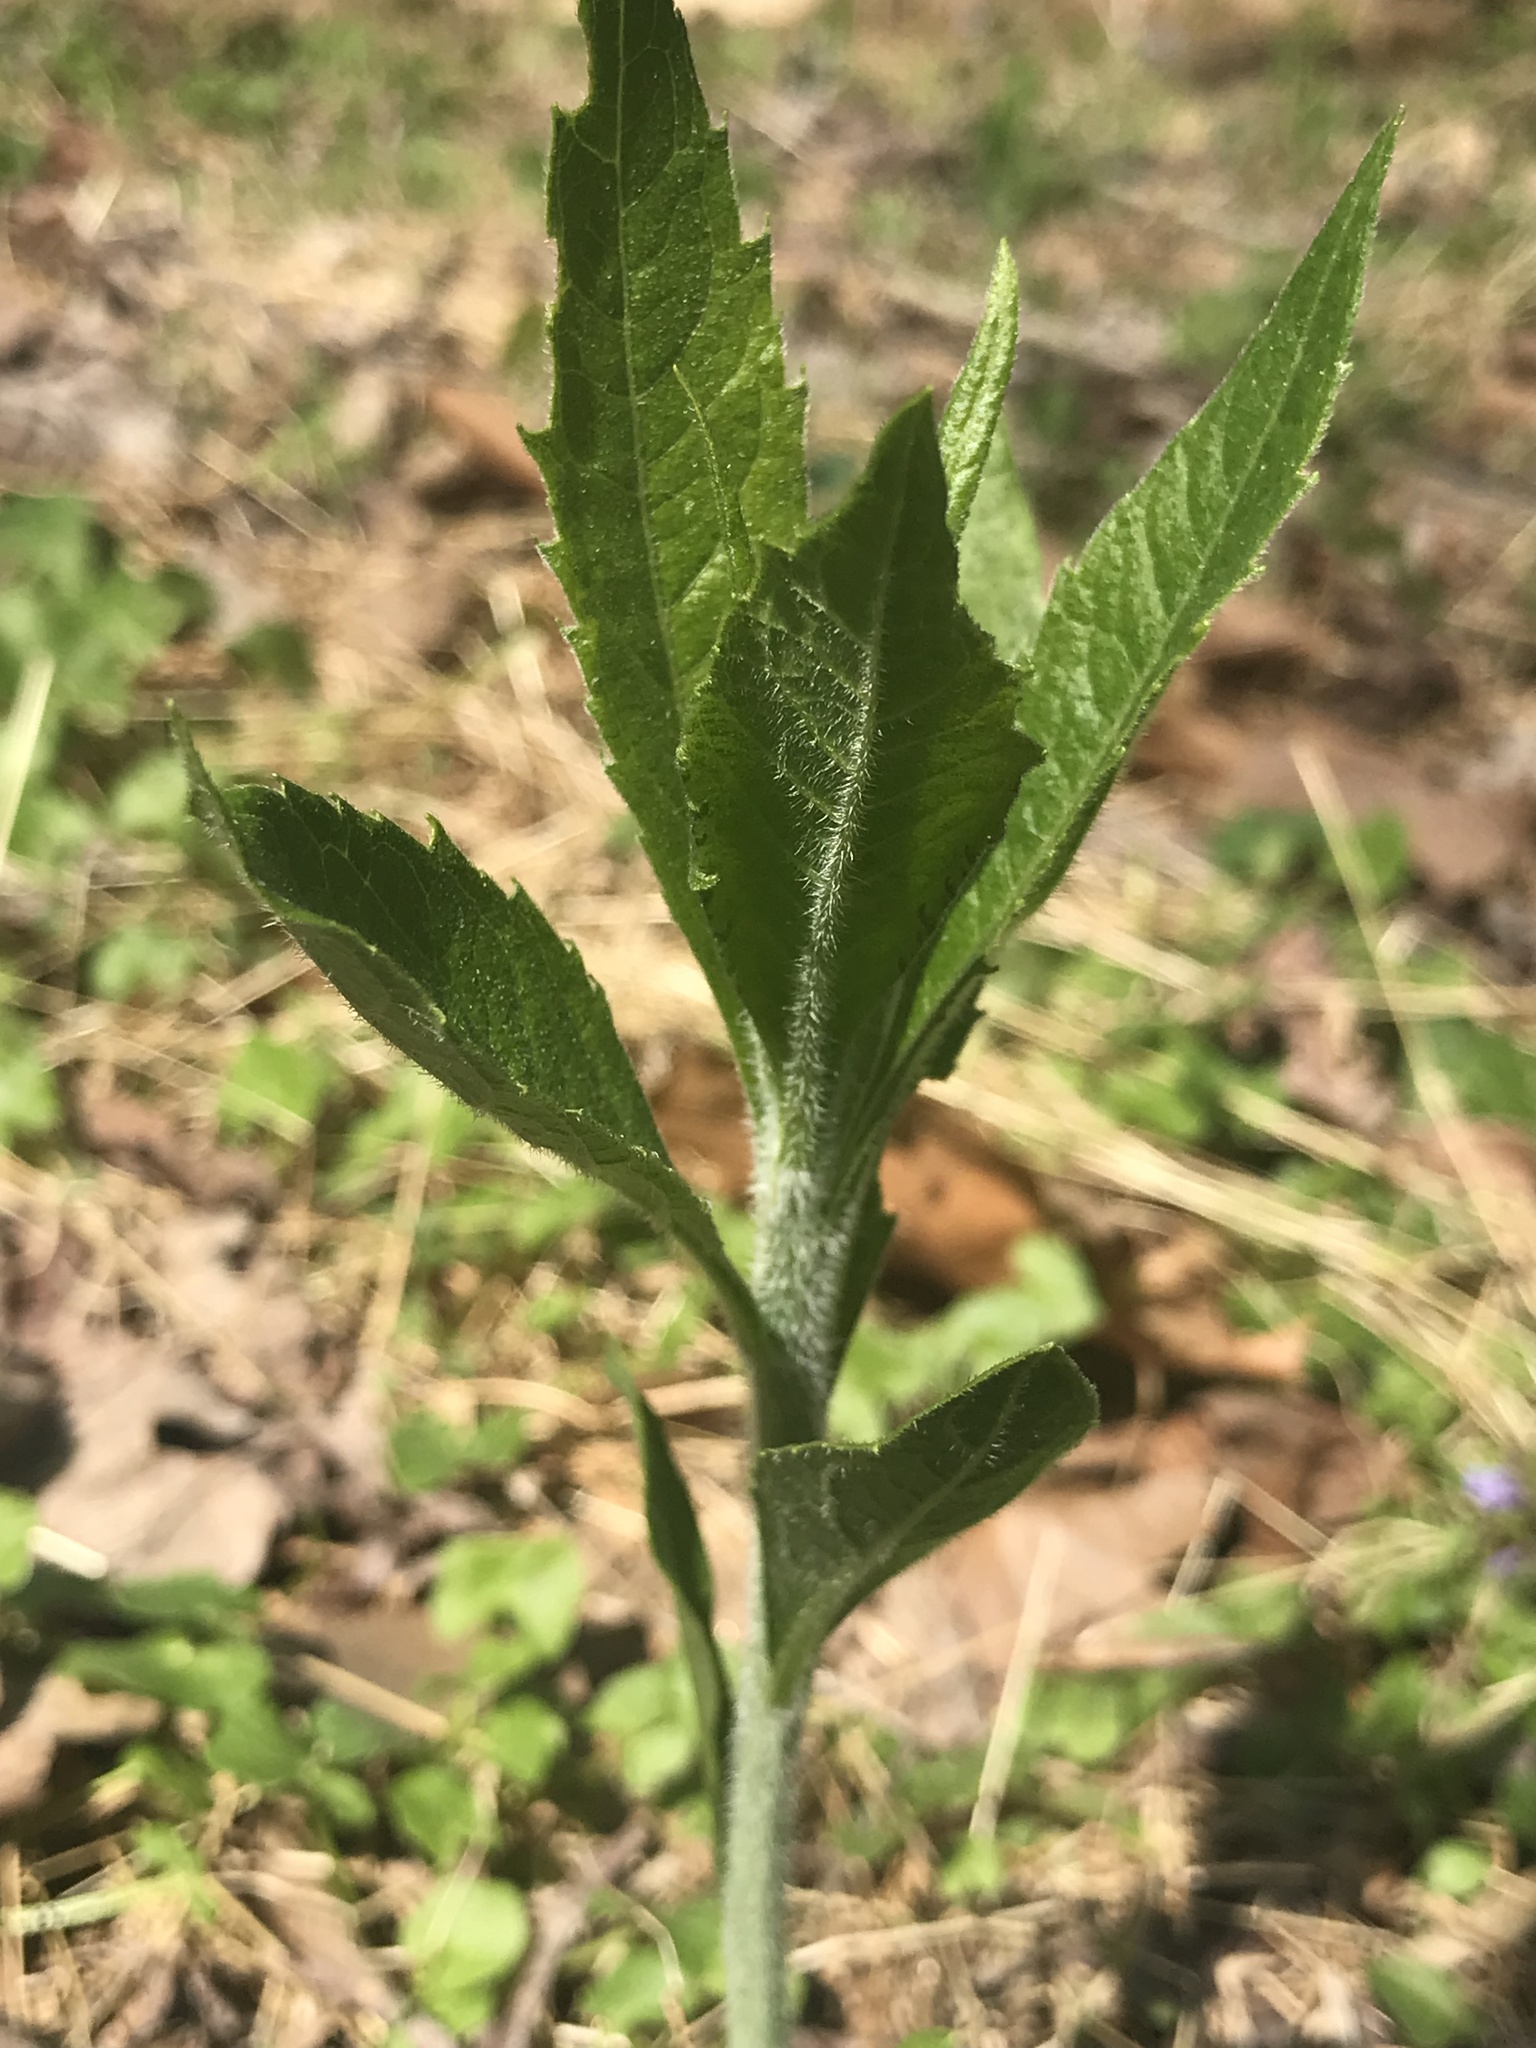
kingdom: Plantae
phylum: Tracheophyta
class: Magnoliopsida
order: Asterales
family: Asteraceae
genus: Verbesina
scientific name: Verbesina alternifolia
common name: Wingstem
